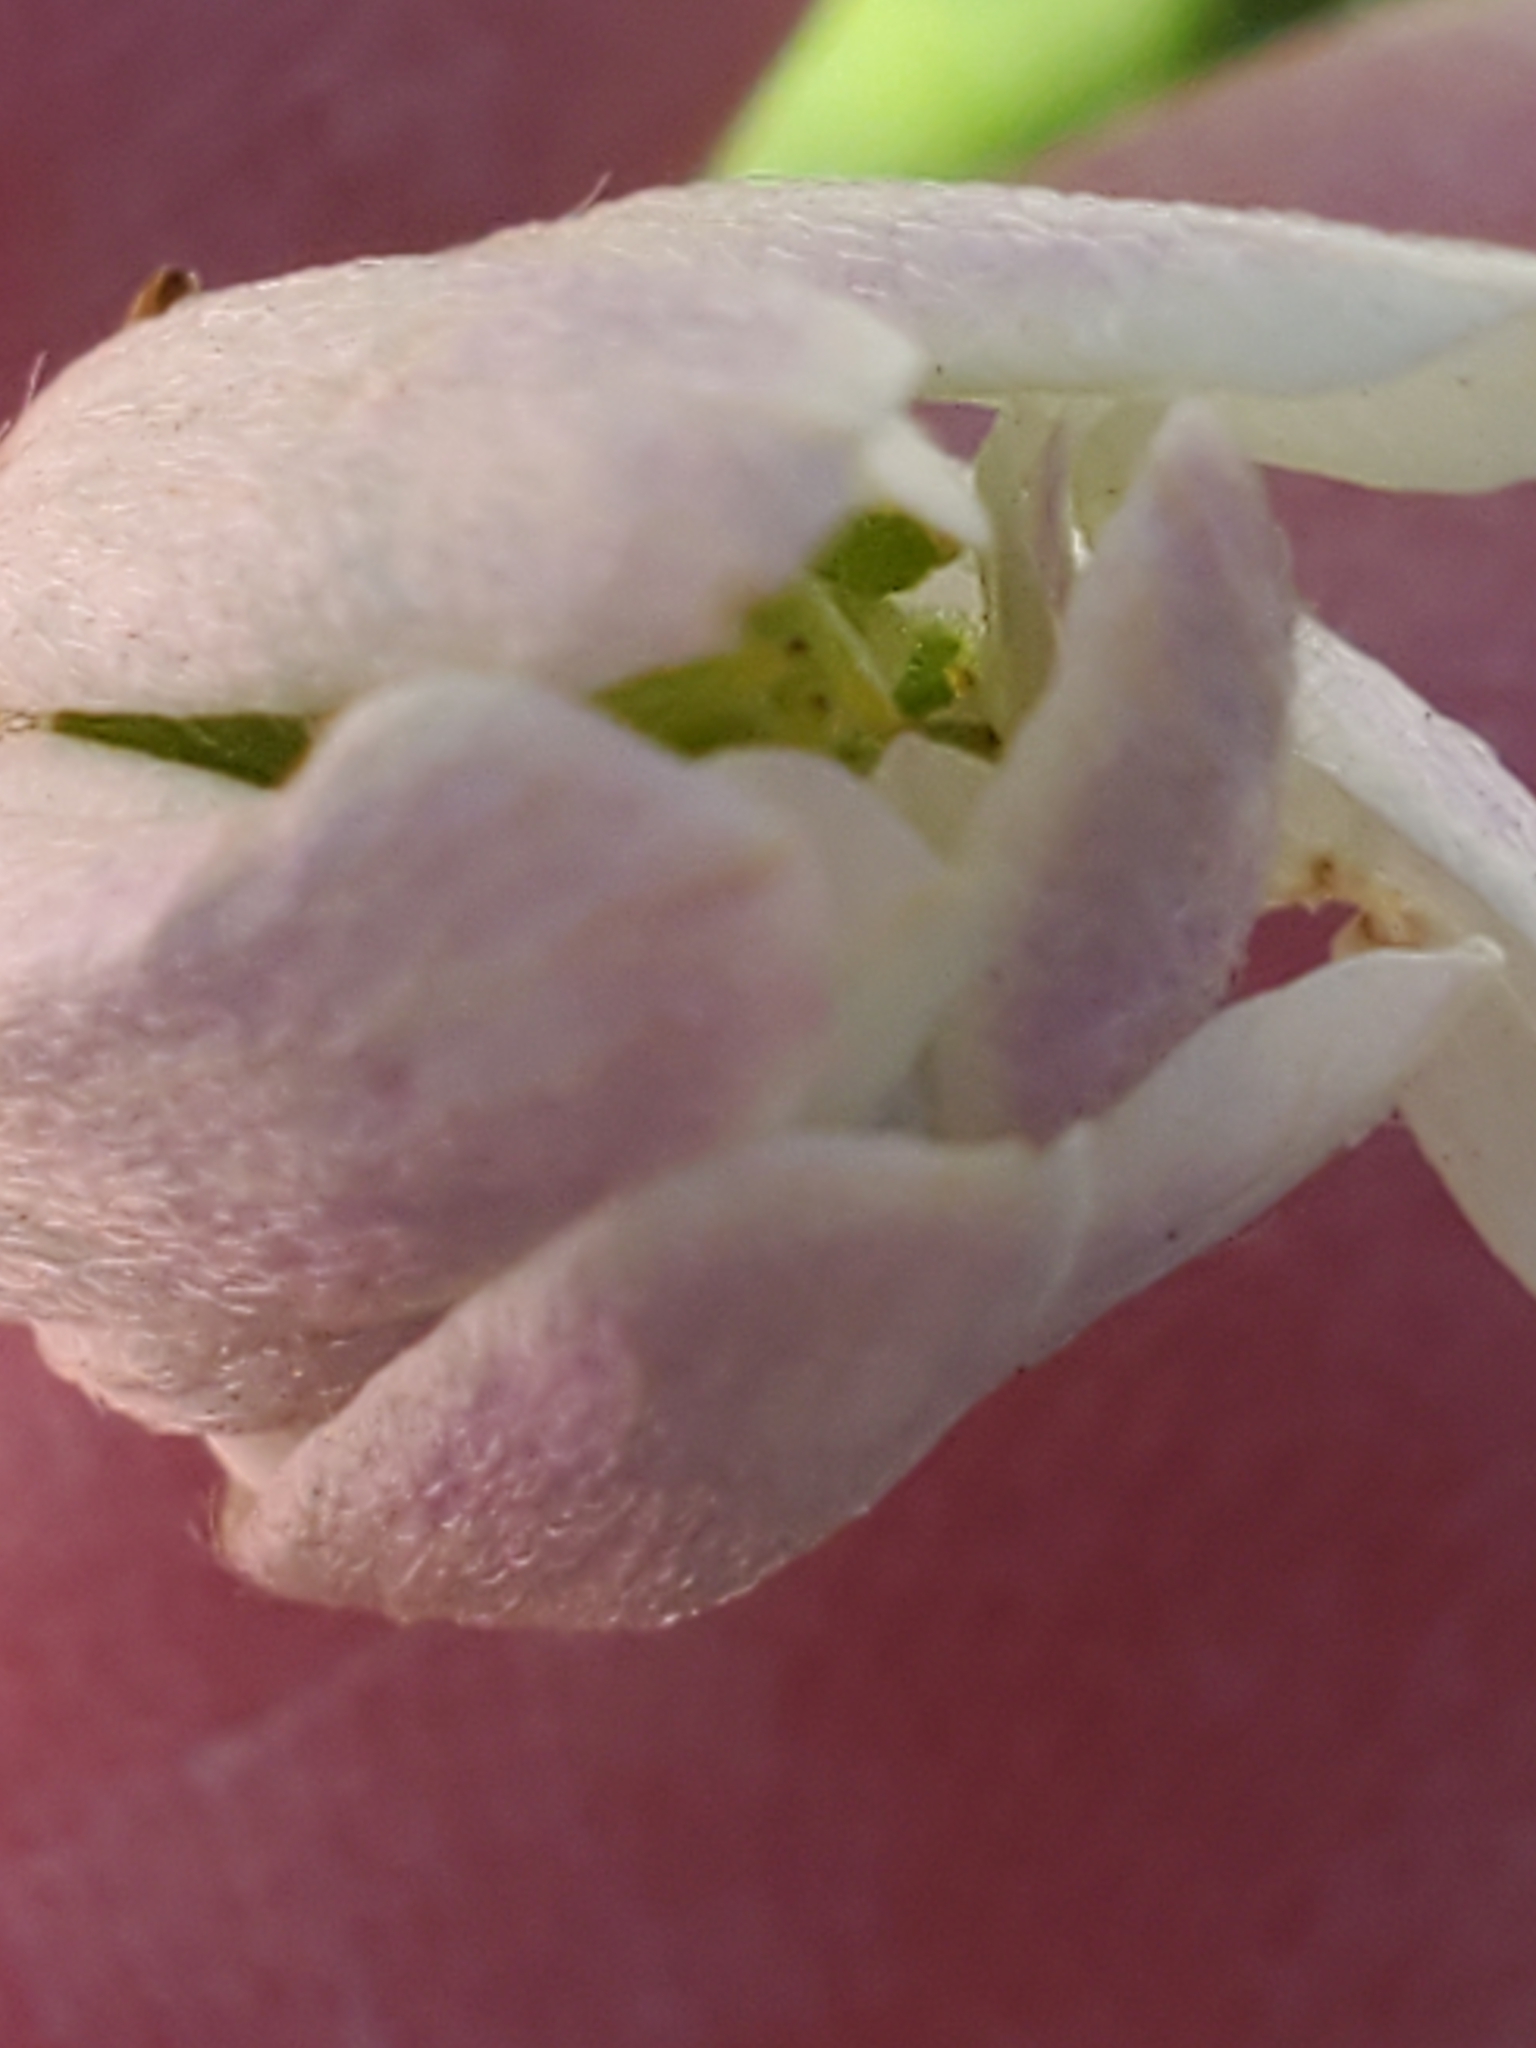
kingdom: Plantae
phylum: Tracheophyta
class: Magnoliopsida
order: Ranunculales
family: Ranunculaceae
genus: Anemone
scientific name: Anemone edwardsiana
